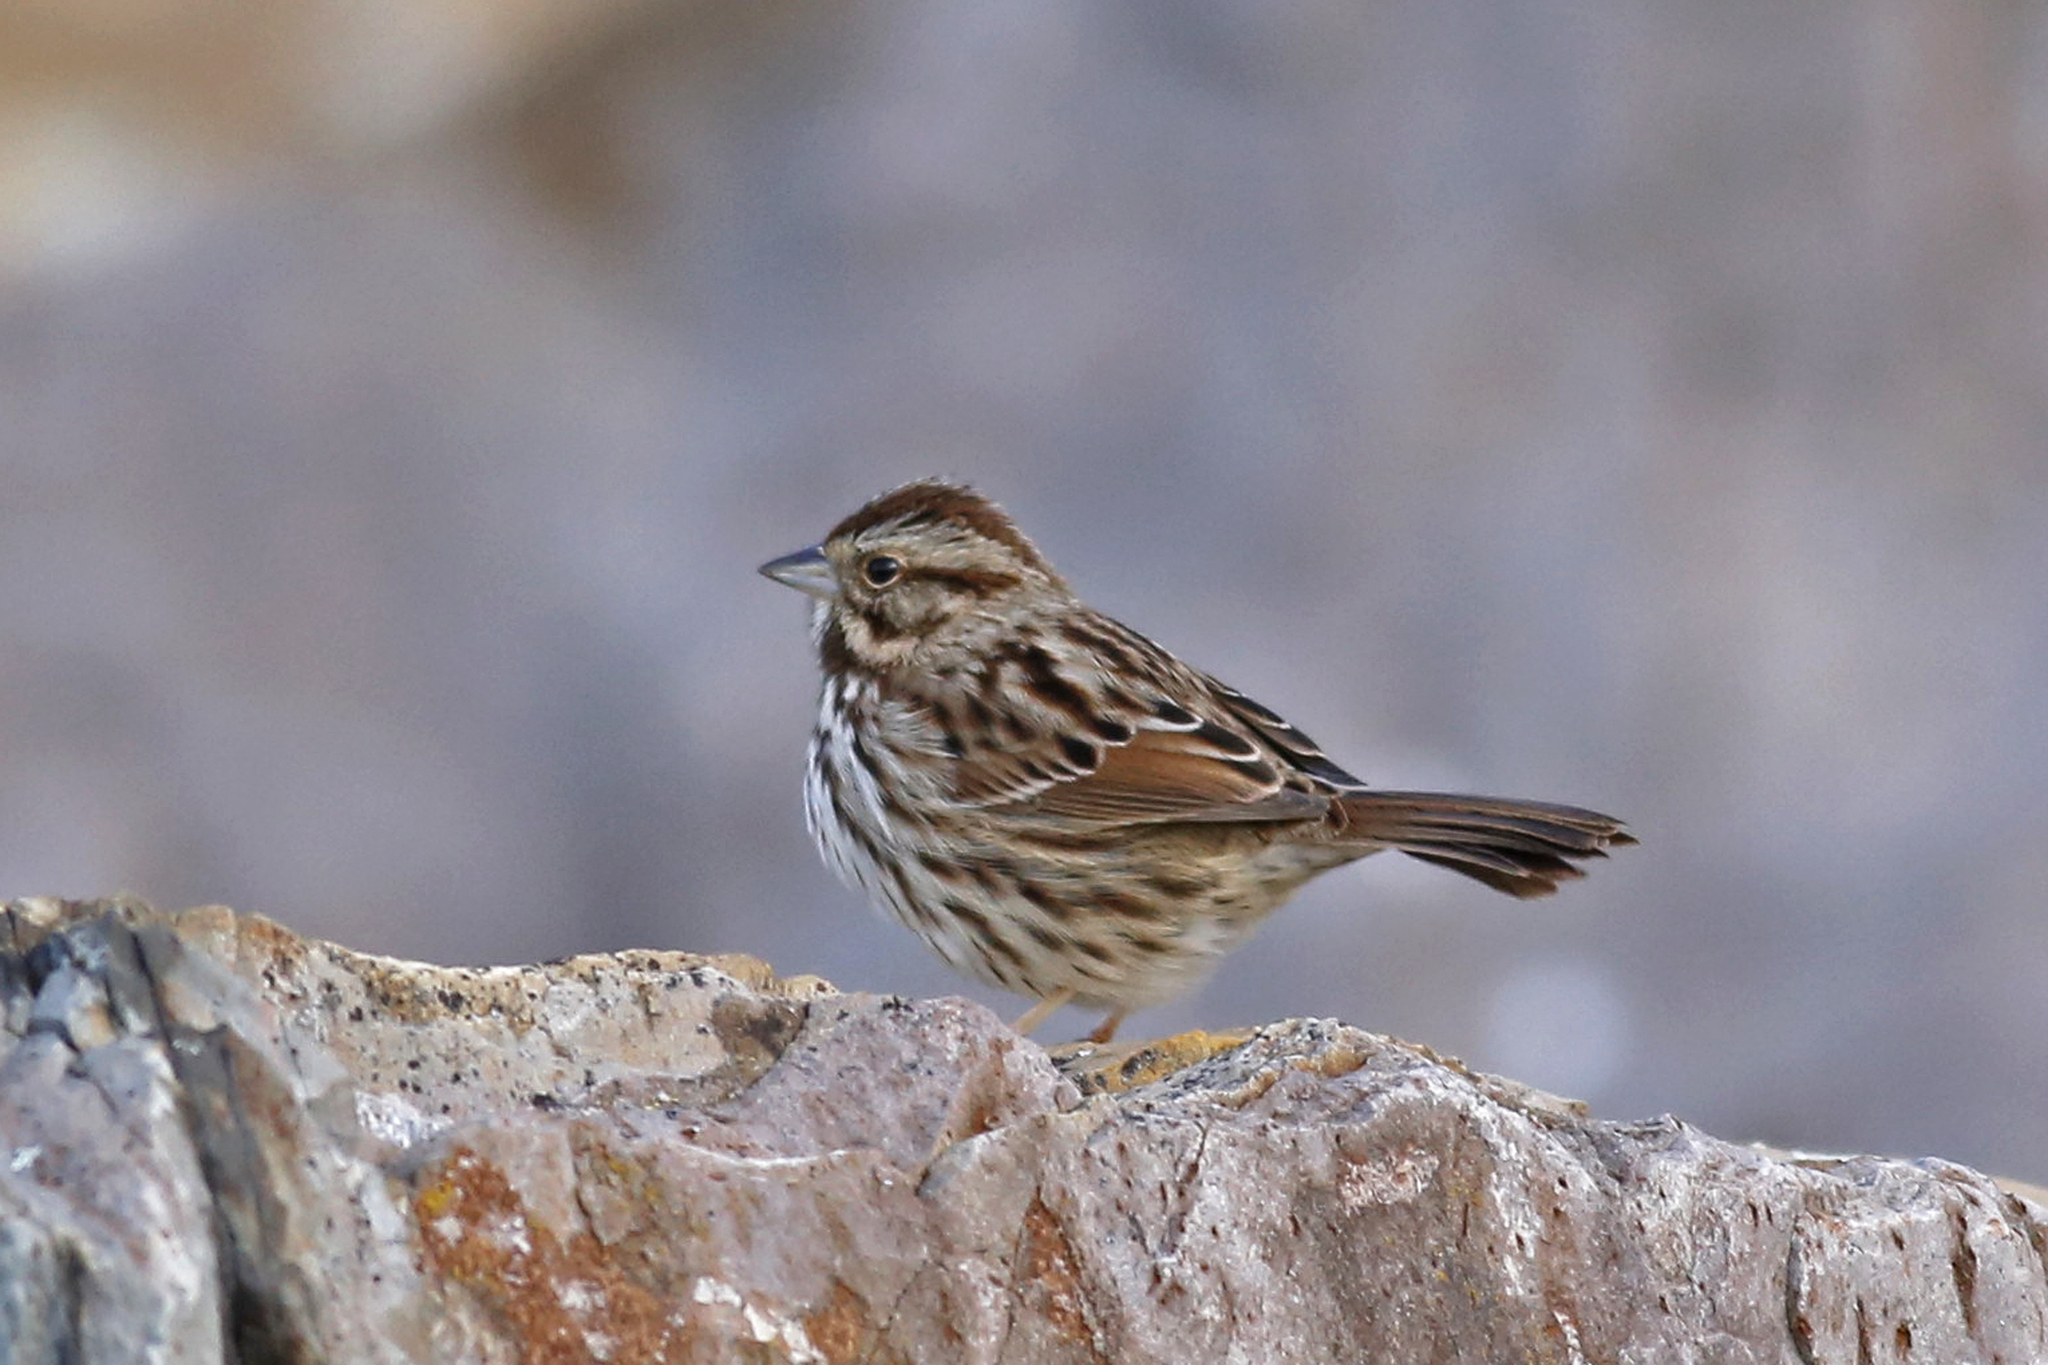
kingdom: Animalia
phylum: Chordata
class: Aves
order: Passeriformes
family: Passerellidae
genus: Melospiza
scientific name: Melospiza melodia
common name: Song sparrow
